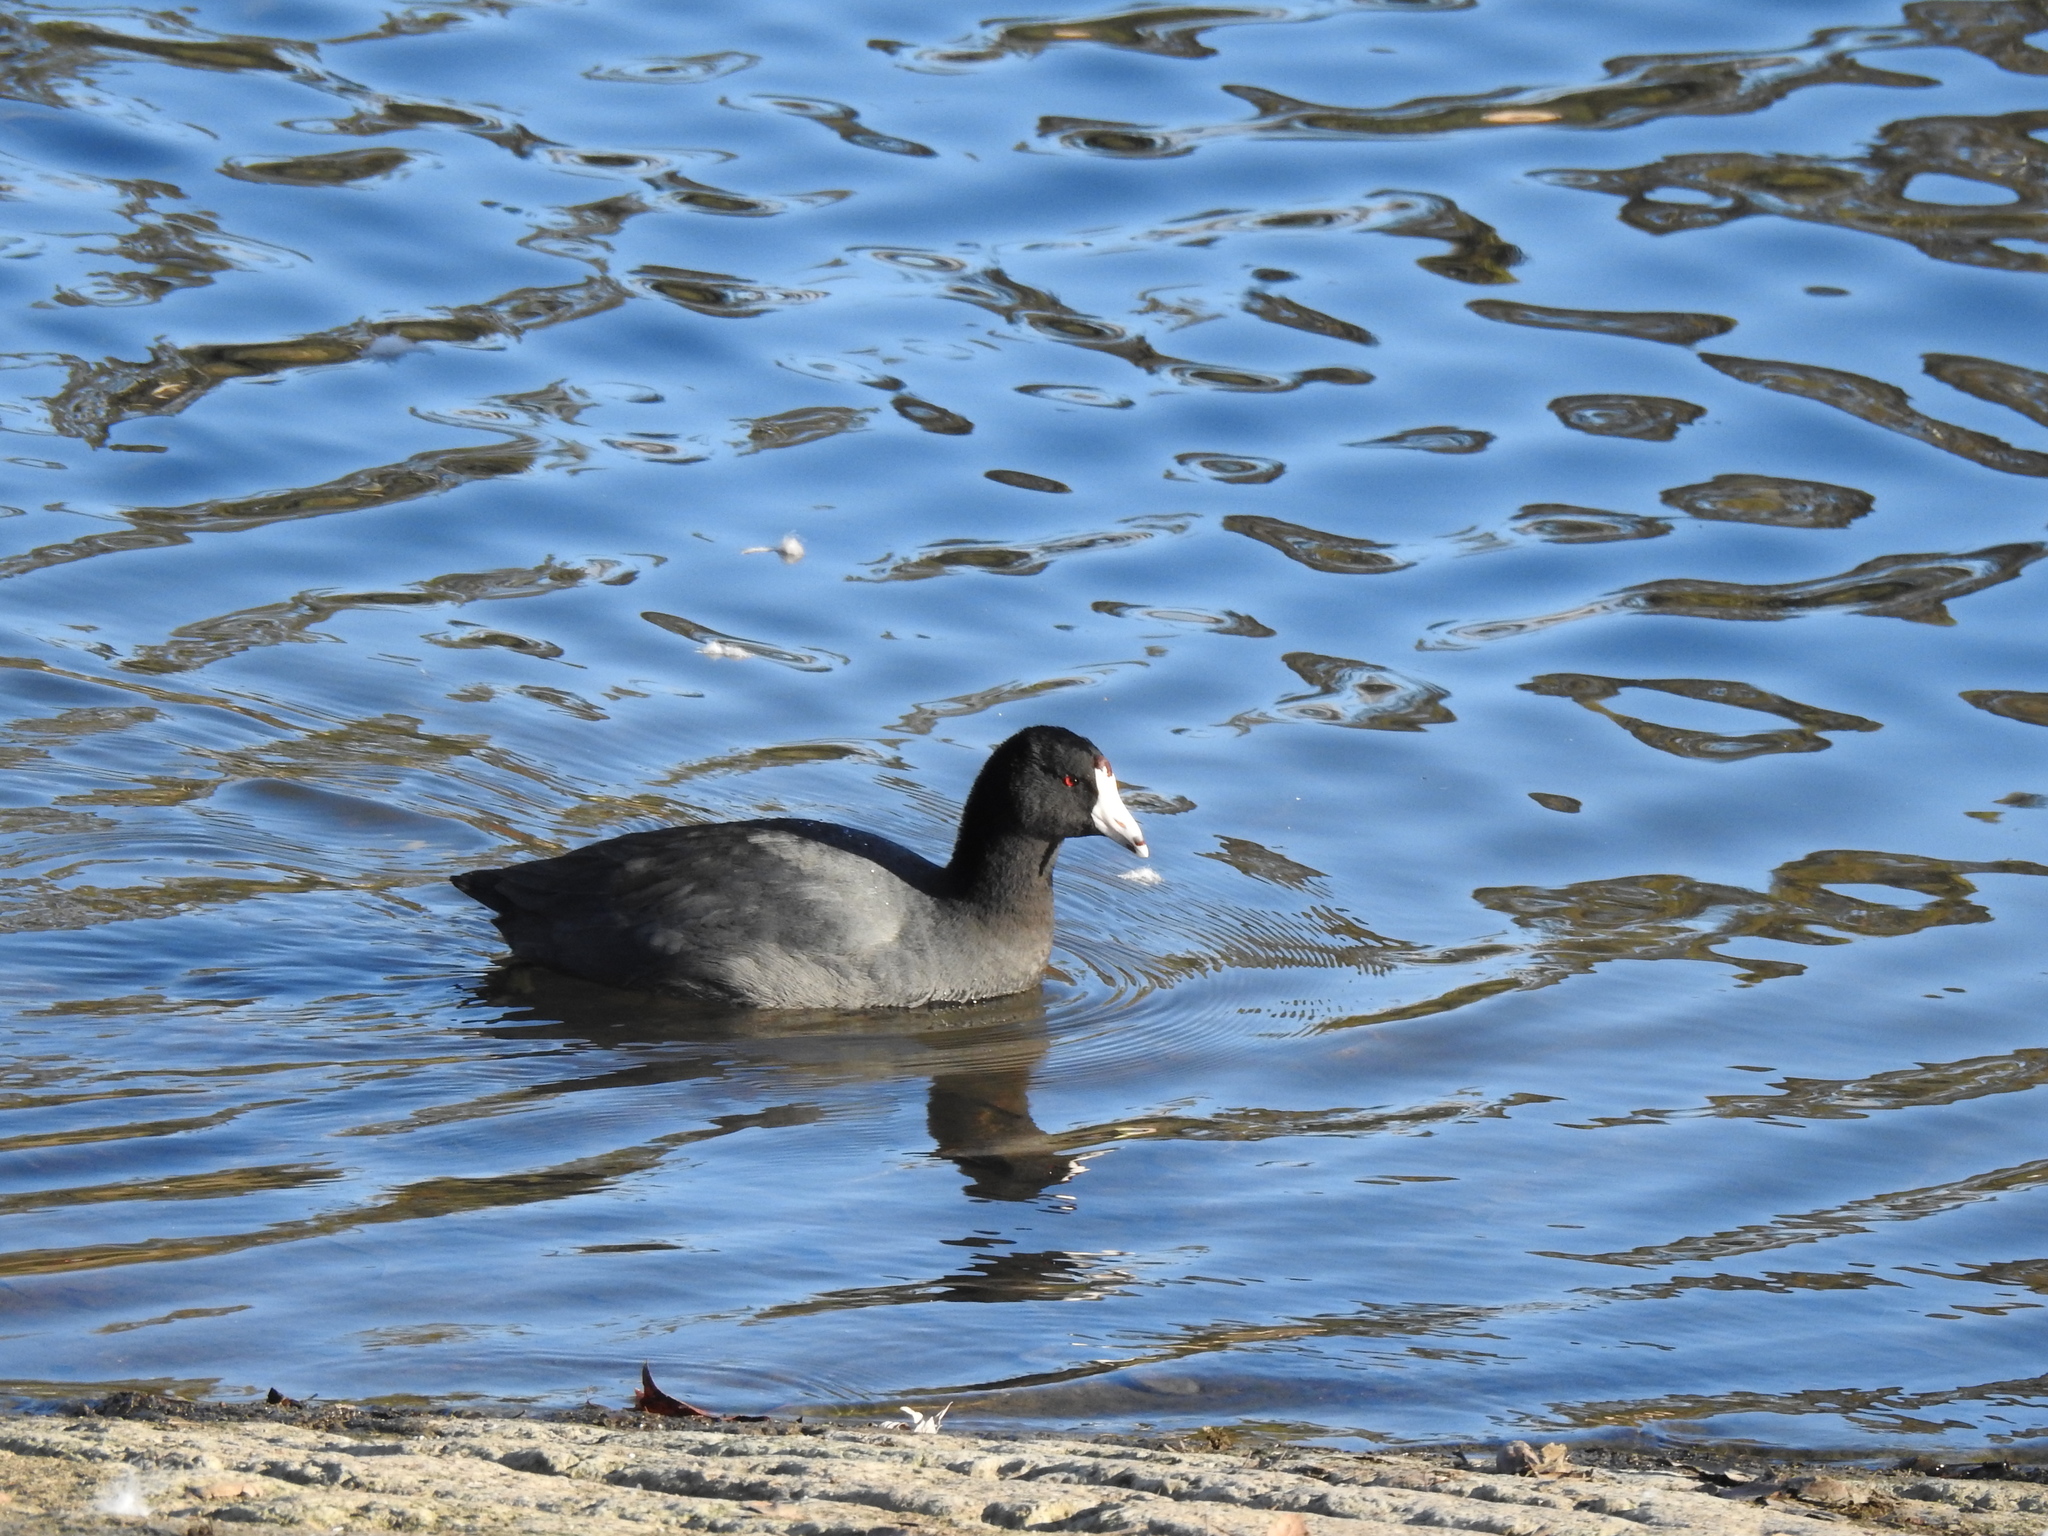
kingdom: Animalia
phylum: Chordata
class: Aves
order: Gruiformes
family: Rallidae
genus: Fulica
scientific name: Fulica americana
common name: American coot
